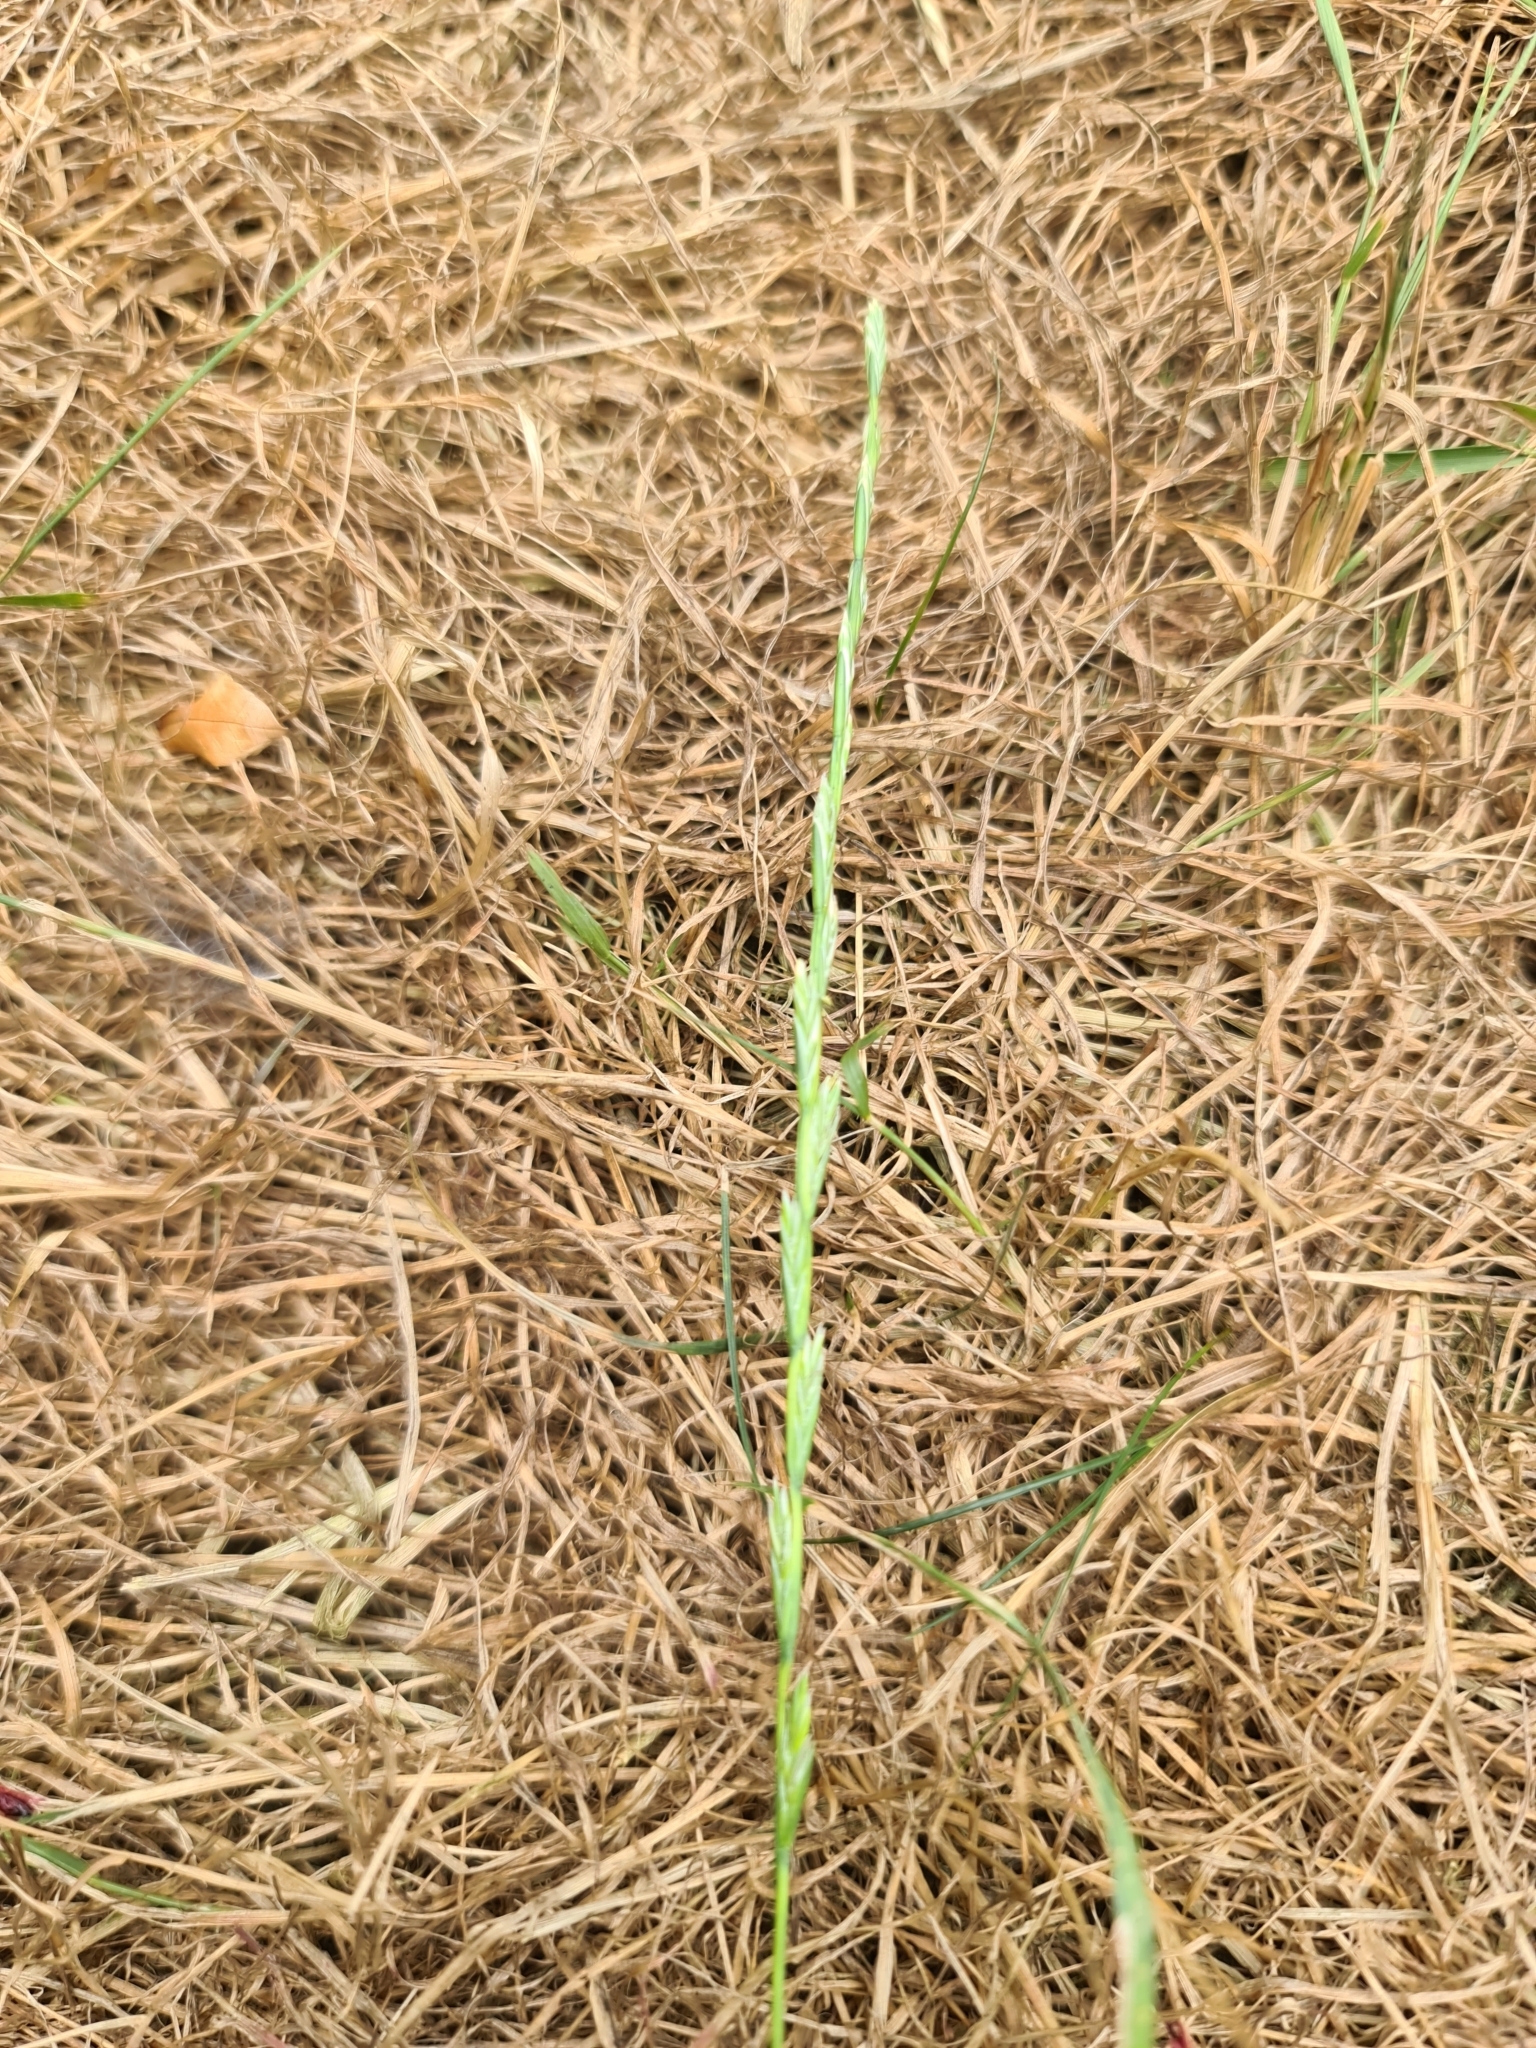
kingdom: Plantae
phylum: Tracheophyta
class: Liliopsida
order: Poales
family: Poaceae
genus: Lolium
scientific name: Lolium perenne
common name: Perennial ryegrass
